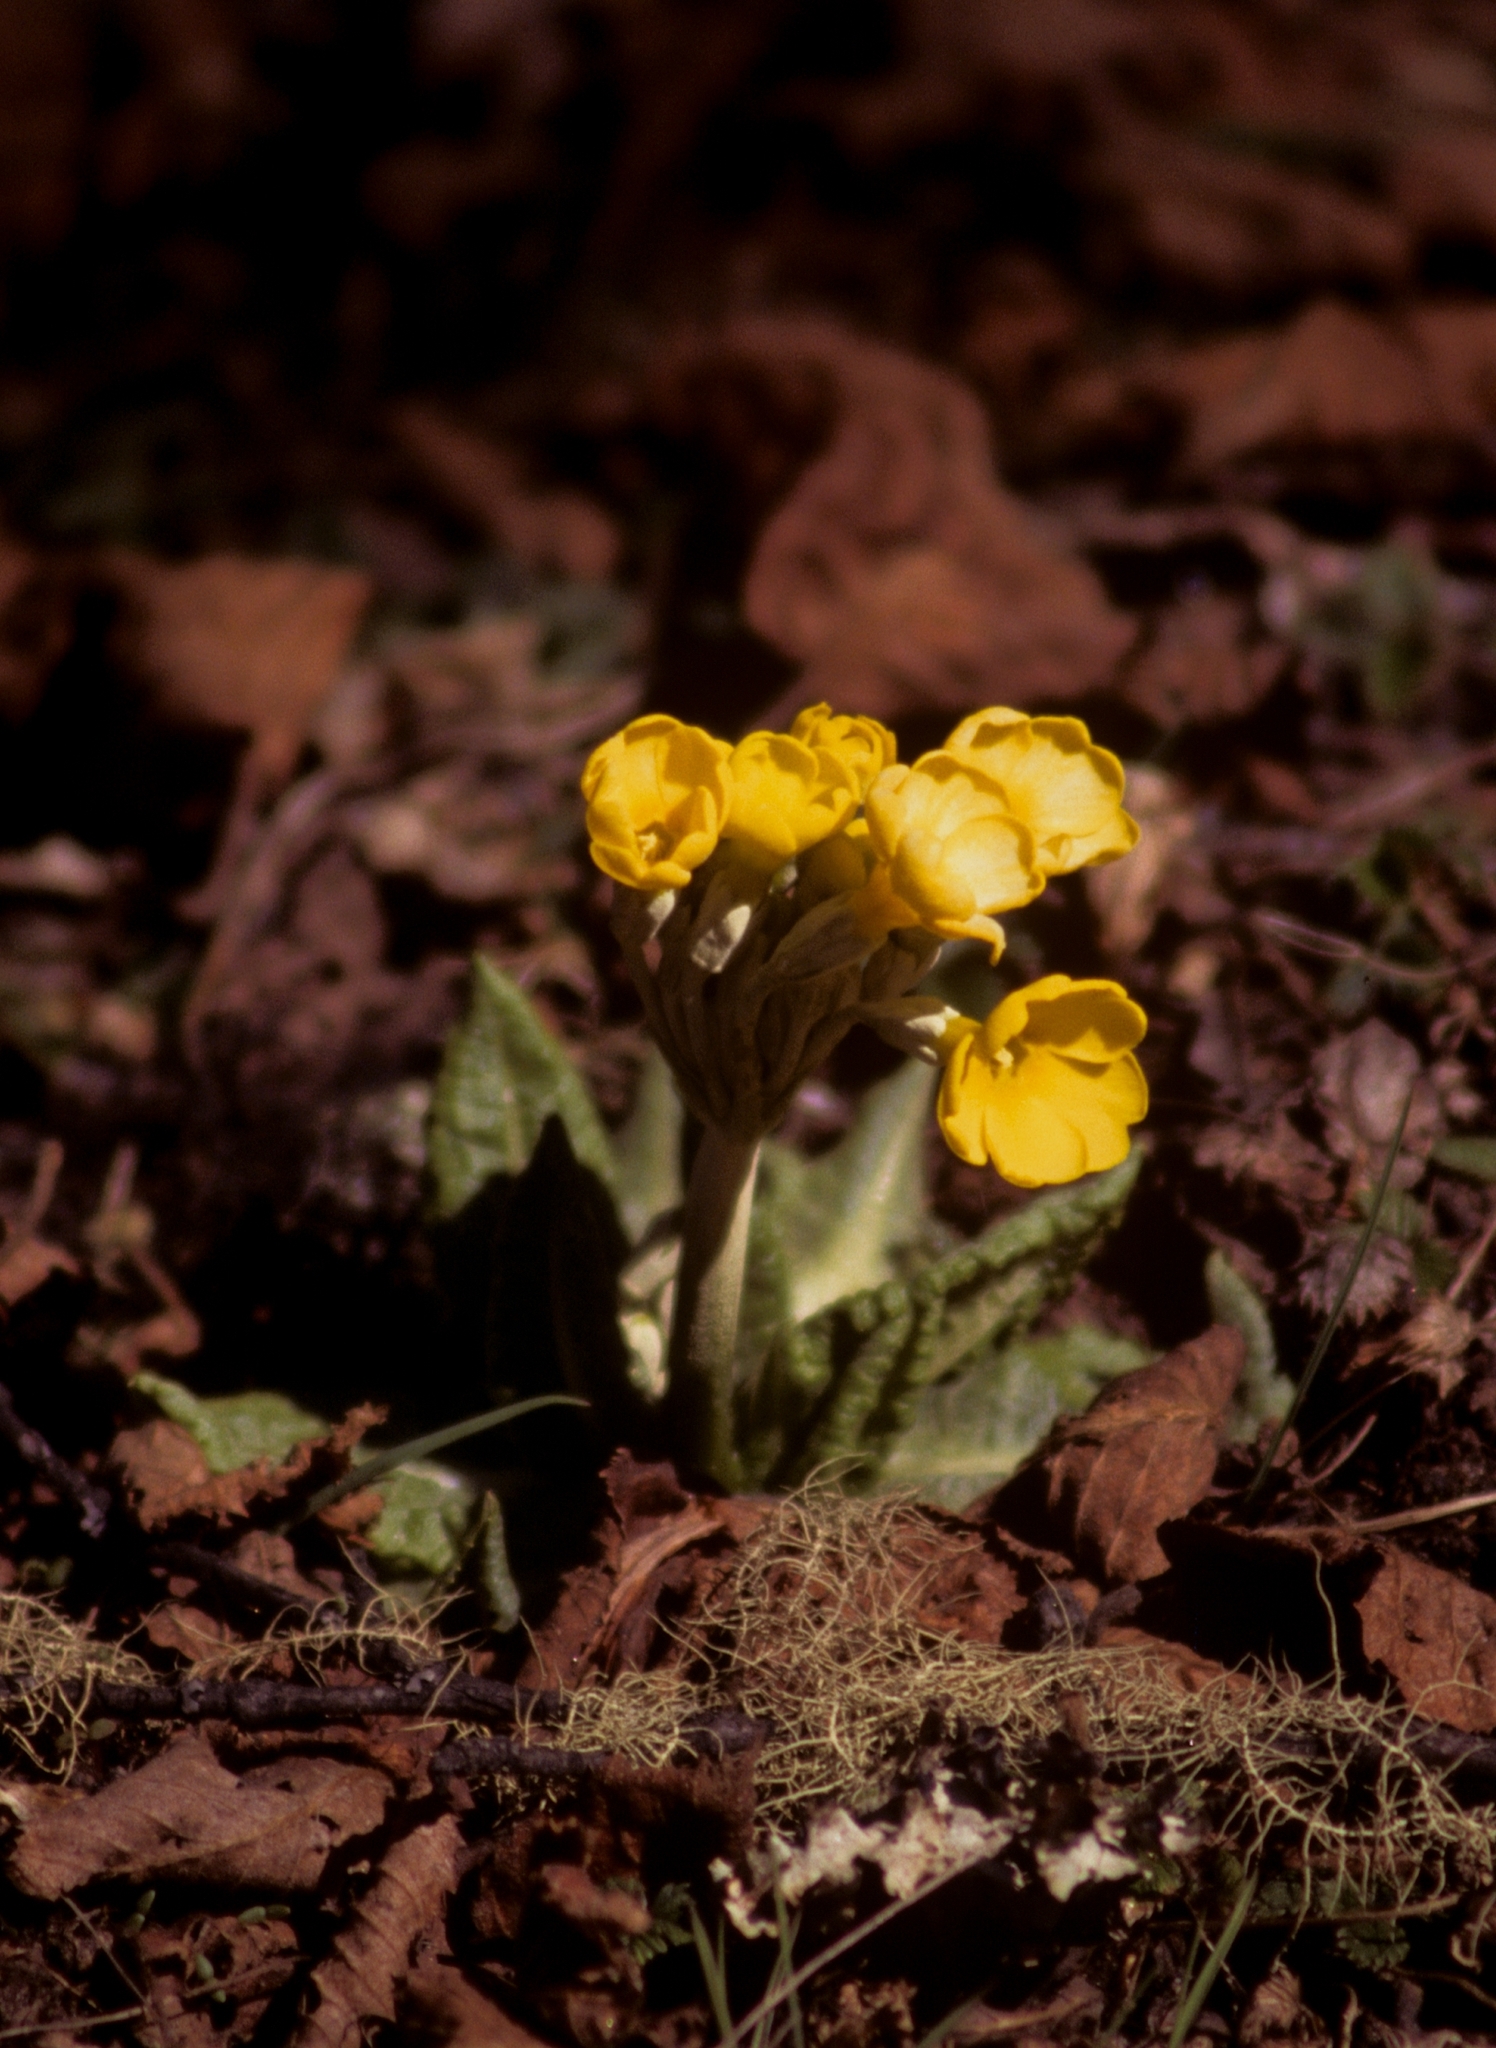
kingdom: Plantae
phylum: Tracheophyta
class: Magnoliopsida
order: Ericales
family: Primulaceae
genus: Primula
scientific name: Primula strumosa
